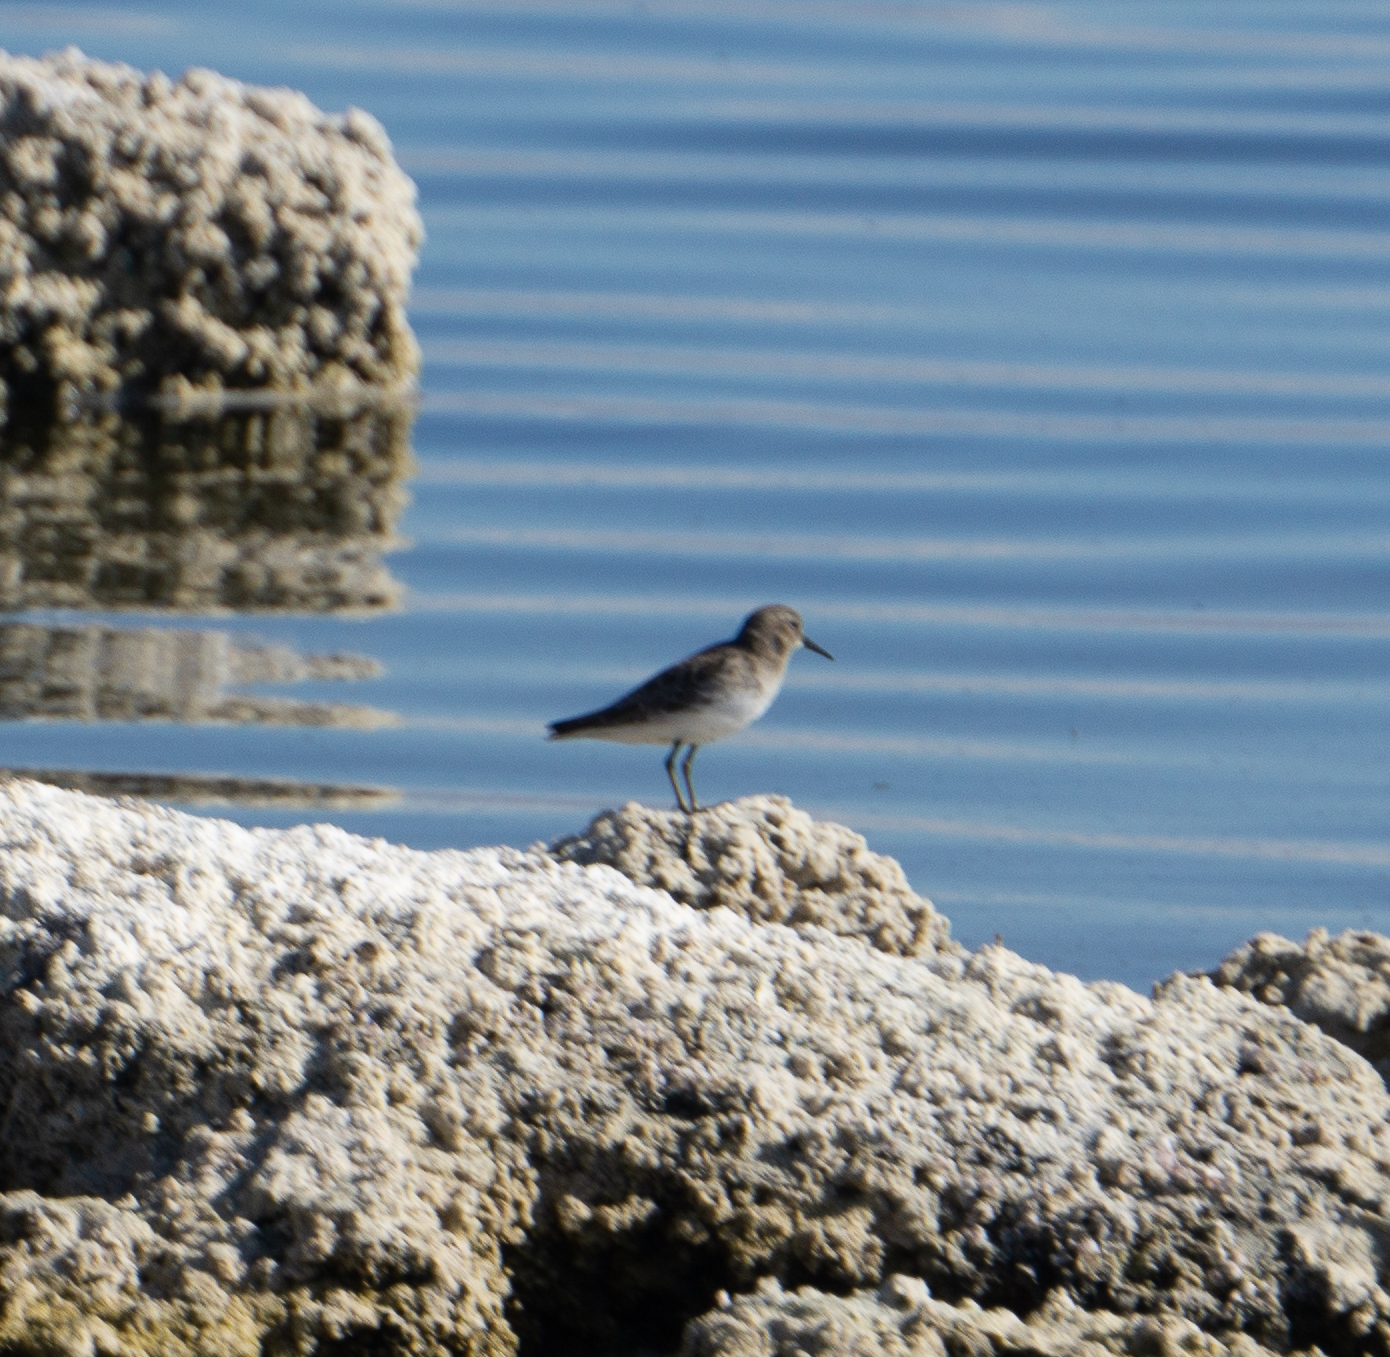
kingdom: Animalia
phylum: Chordata
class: Aves
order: Charadriiformes
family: Scolopacidae
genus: Calidris
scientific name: Calidris minutilla
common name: Least sandpiper
